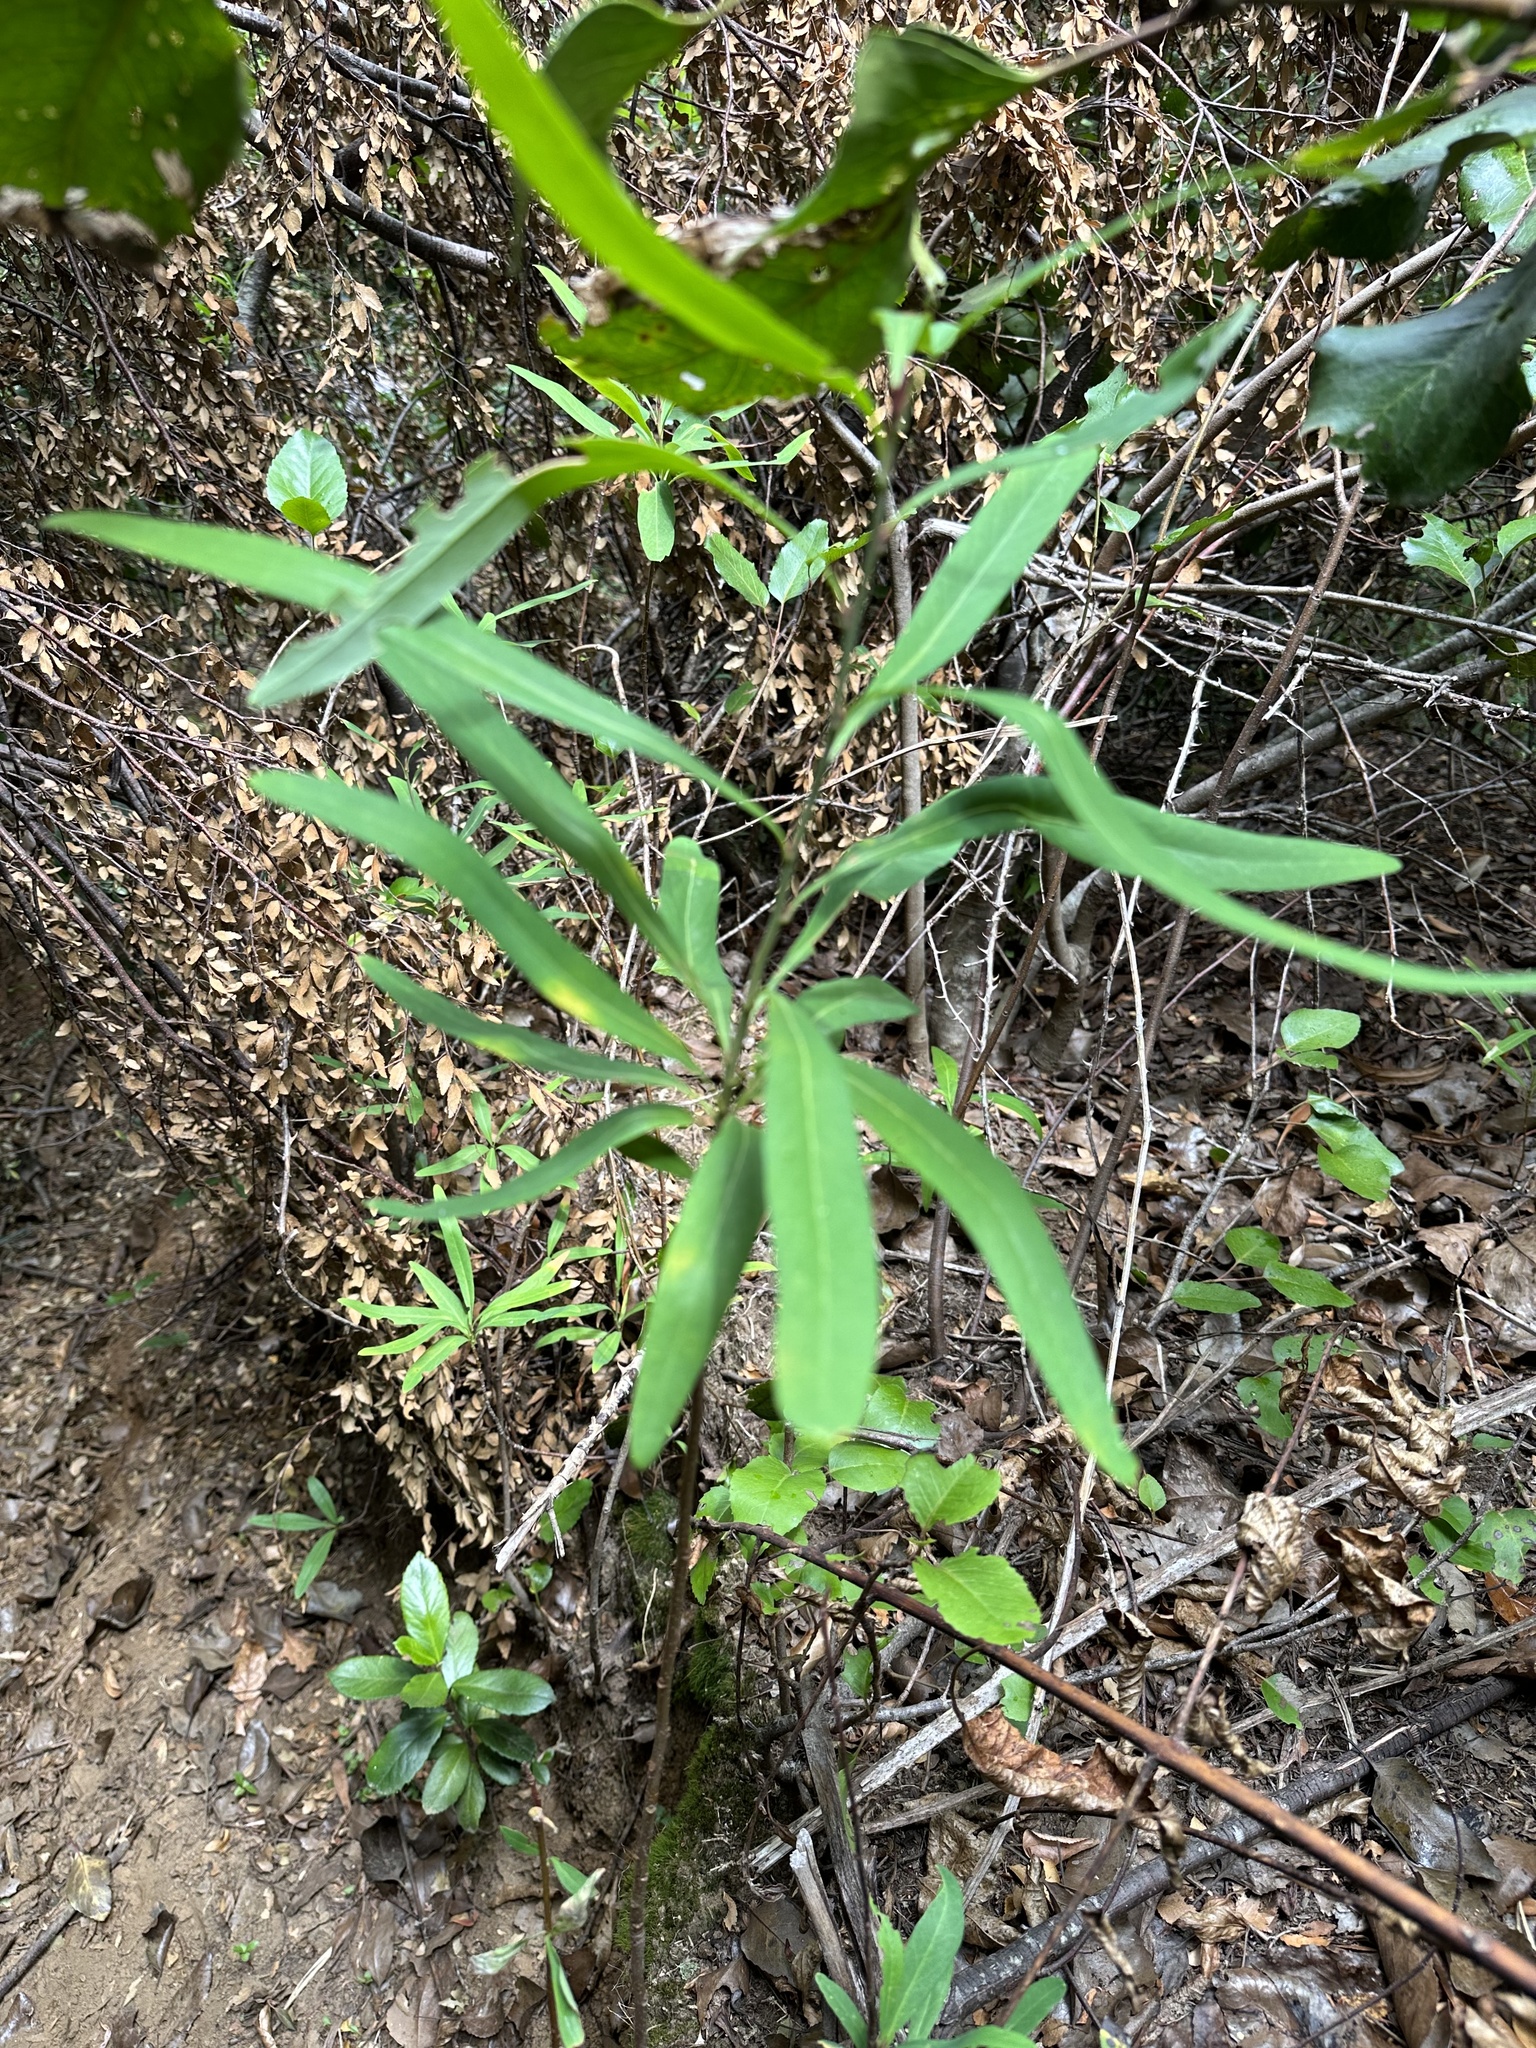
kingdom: Plantae
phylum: Tracheophyta
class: Magnoliopsida
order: Proteales
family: Proteaceae
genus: Embothrium
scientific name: Embothrium coccineum
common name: Chilean firebush
